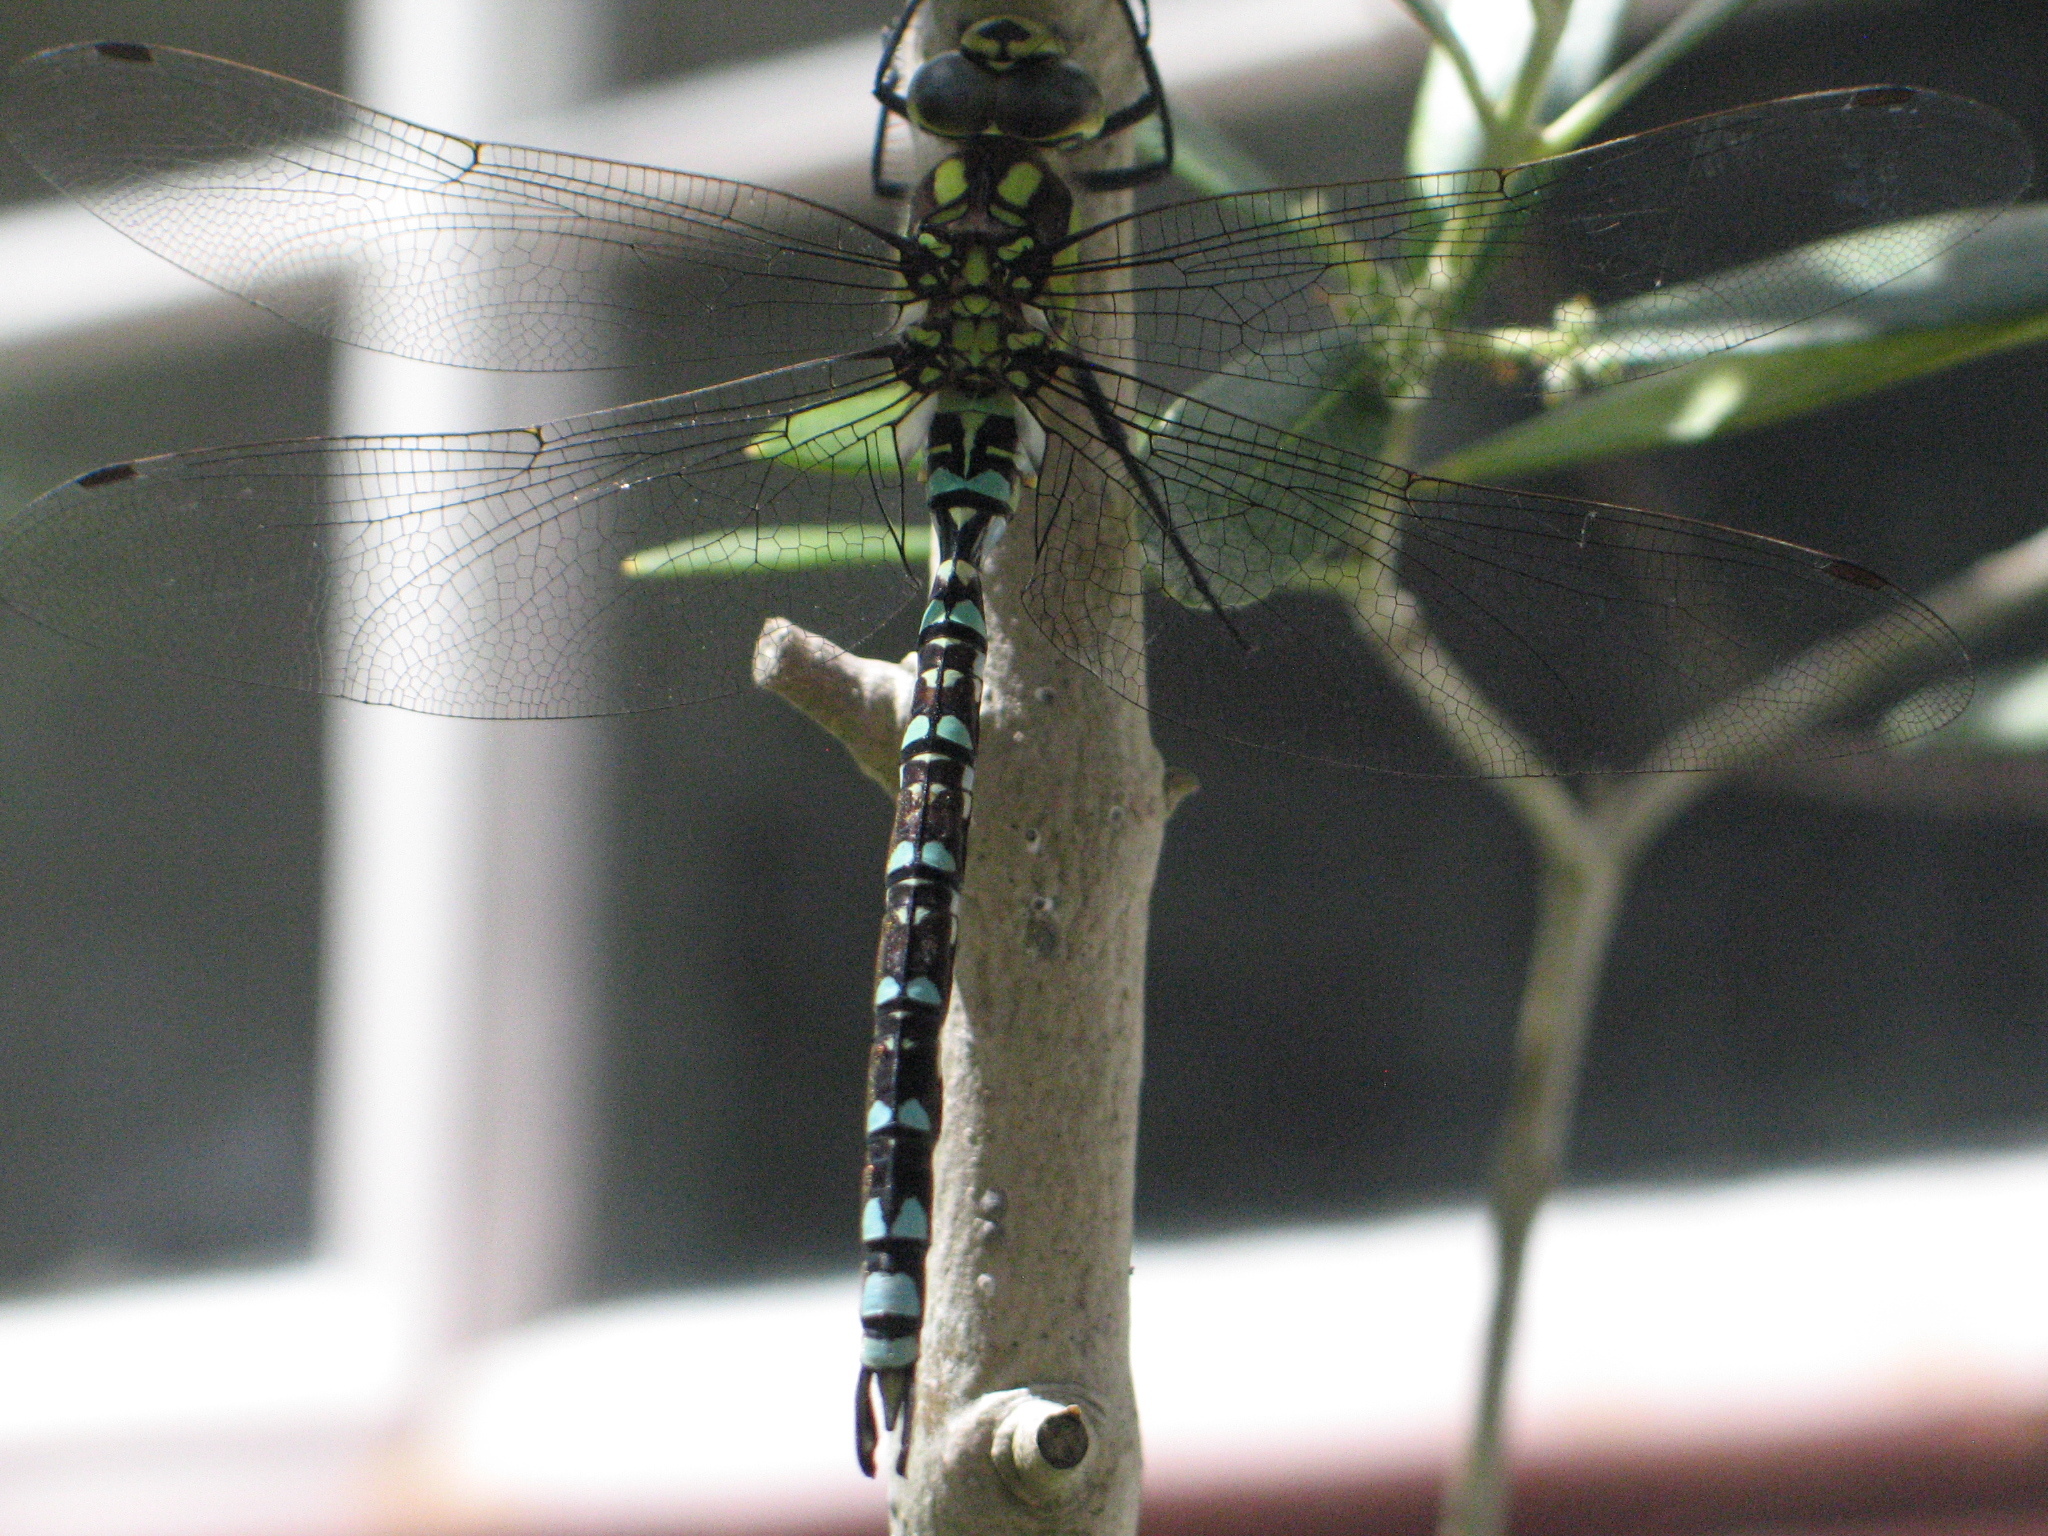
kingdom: Animalia
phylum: Arthropoda
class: Insecta
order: Odonata
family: Aeshnidae
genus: Aeshna
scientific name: Aeshna cyanea
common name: Southern hawker
